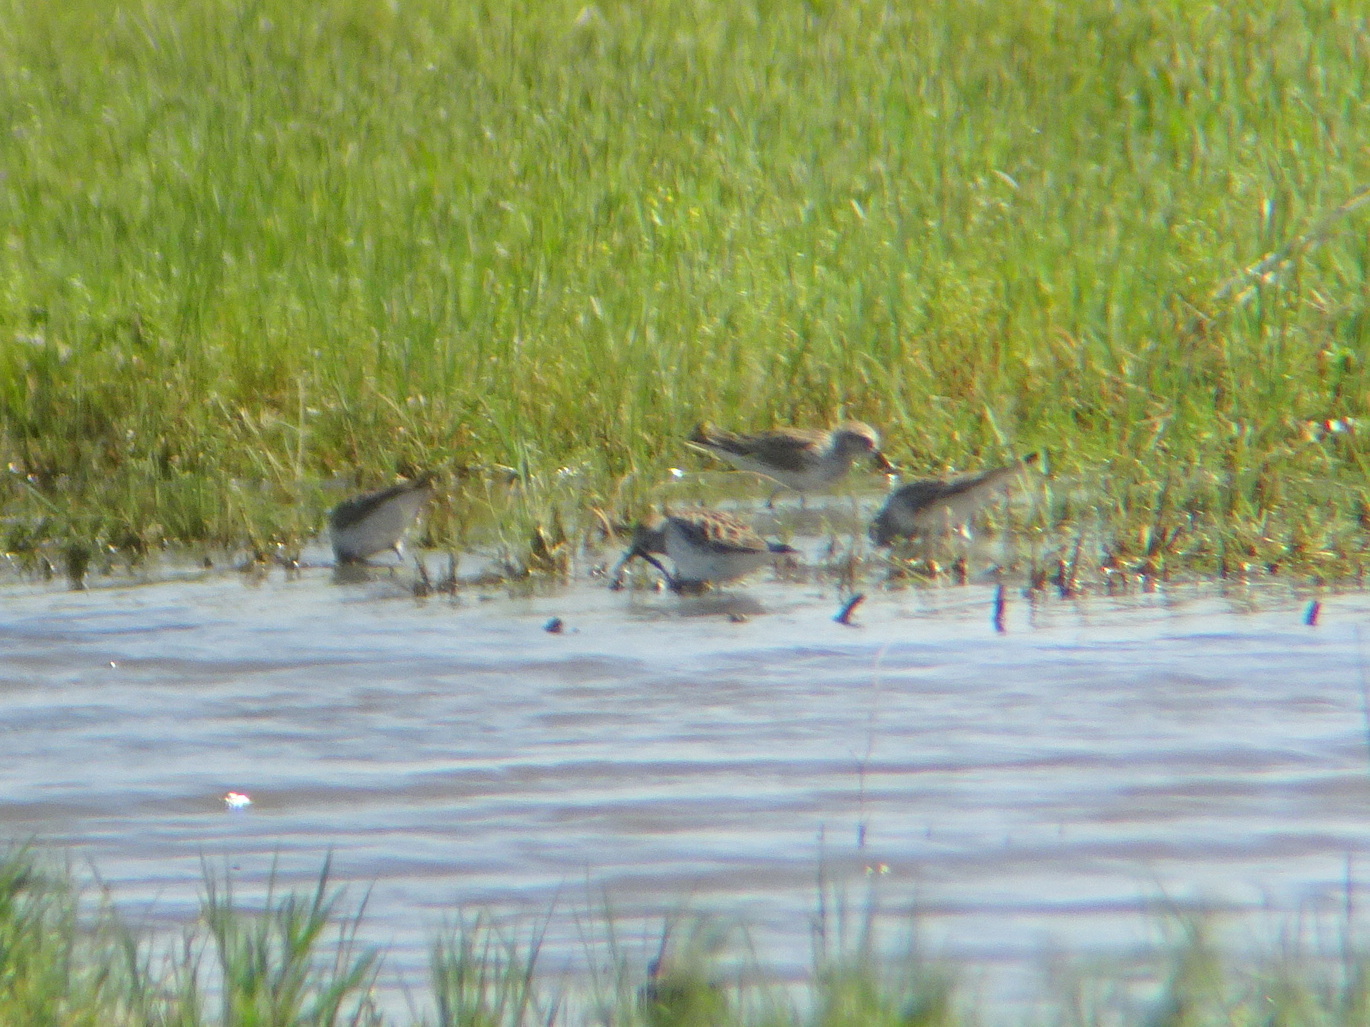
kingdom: Animalia
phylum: Chordata
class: Aves
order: Charadriiformes
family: Scolopacidae
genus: Calidris
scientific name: Calidris fuscicollis
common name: White-rumped sandpiper
